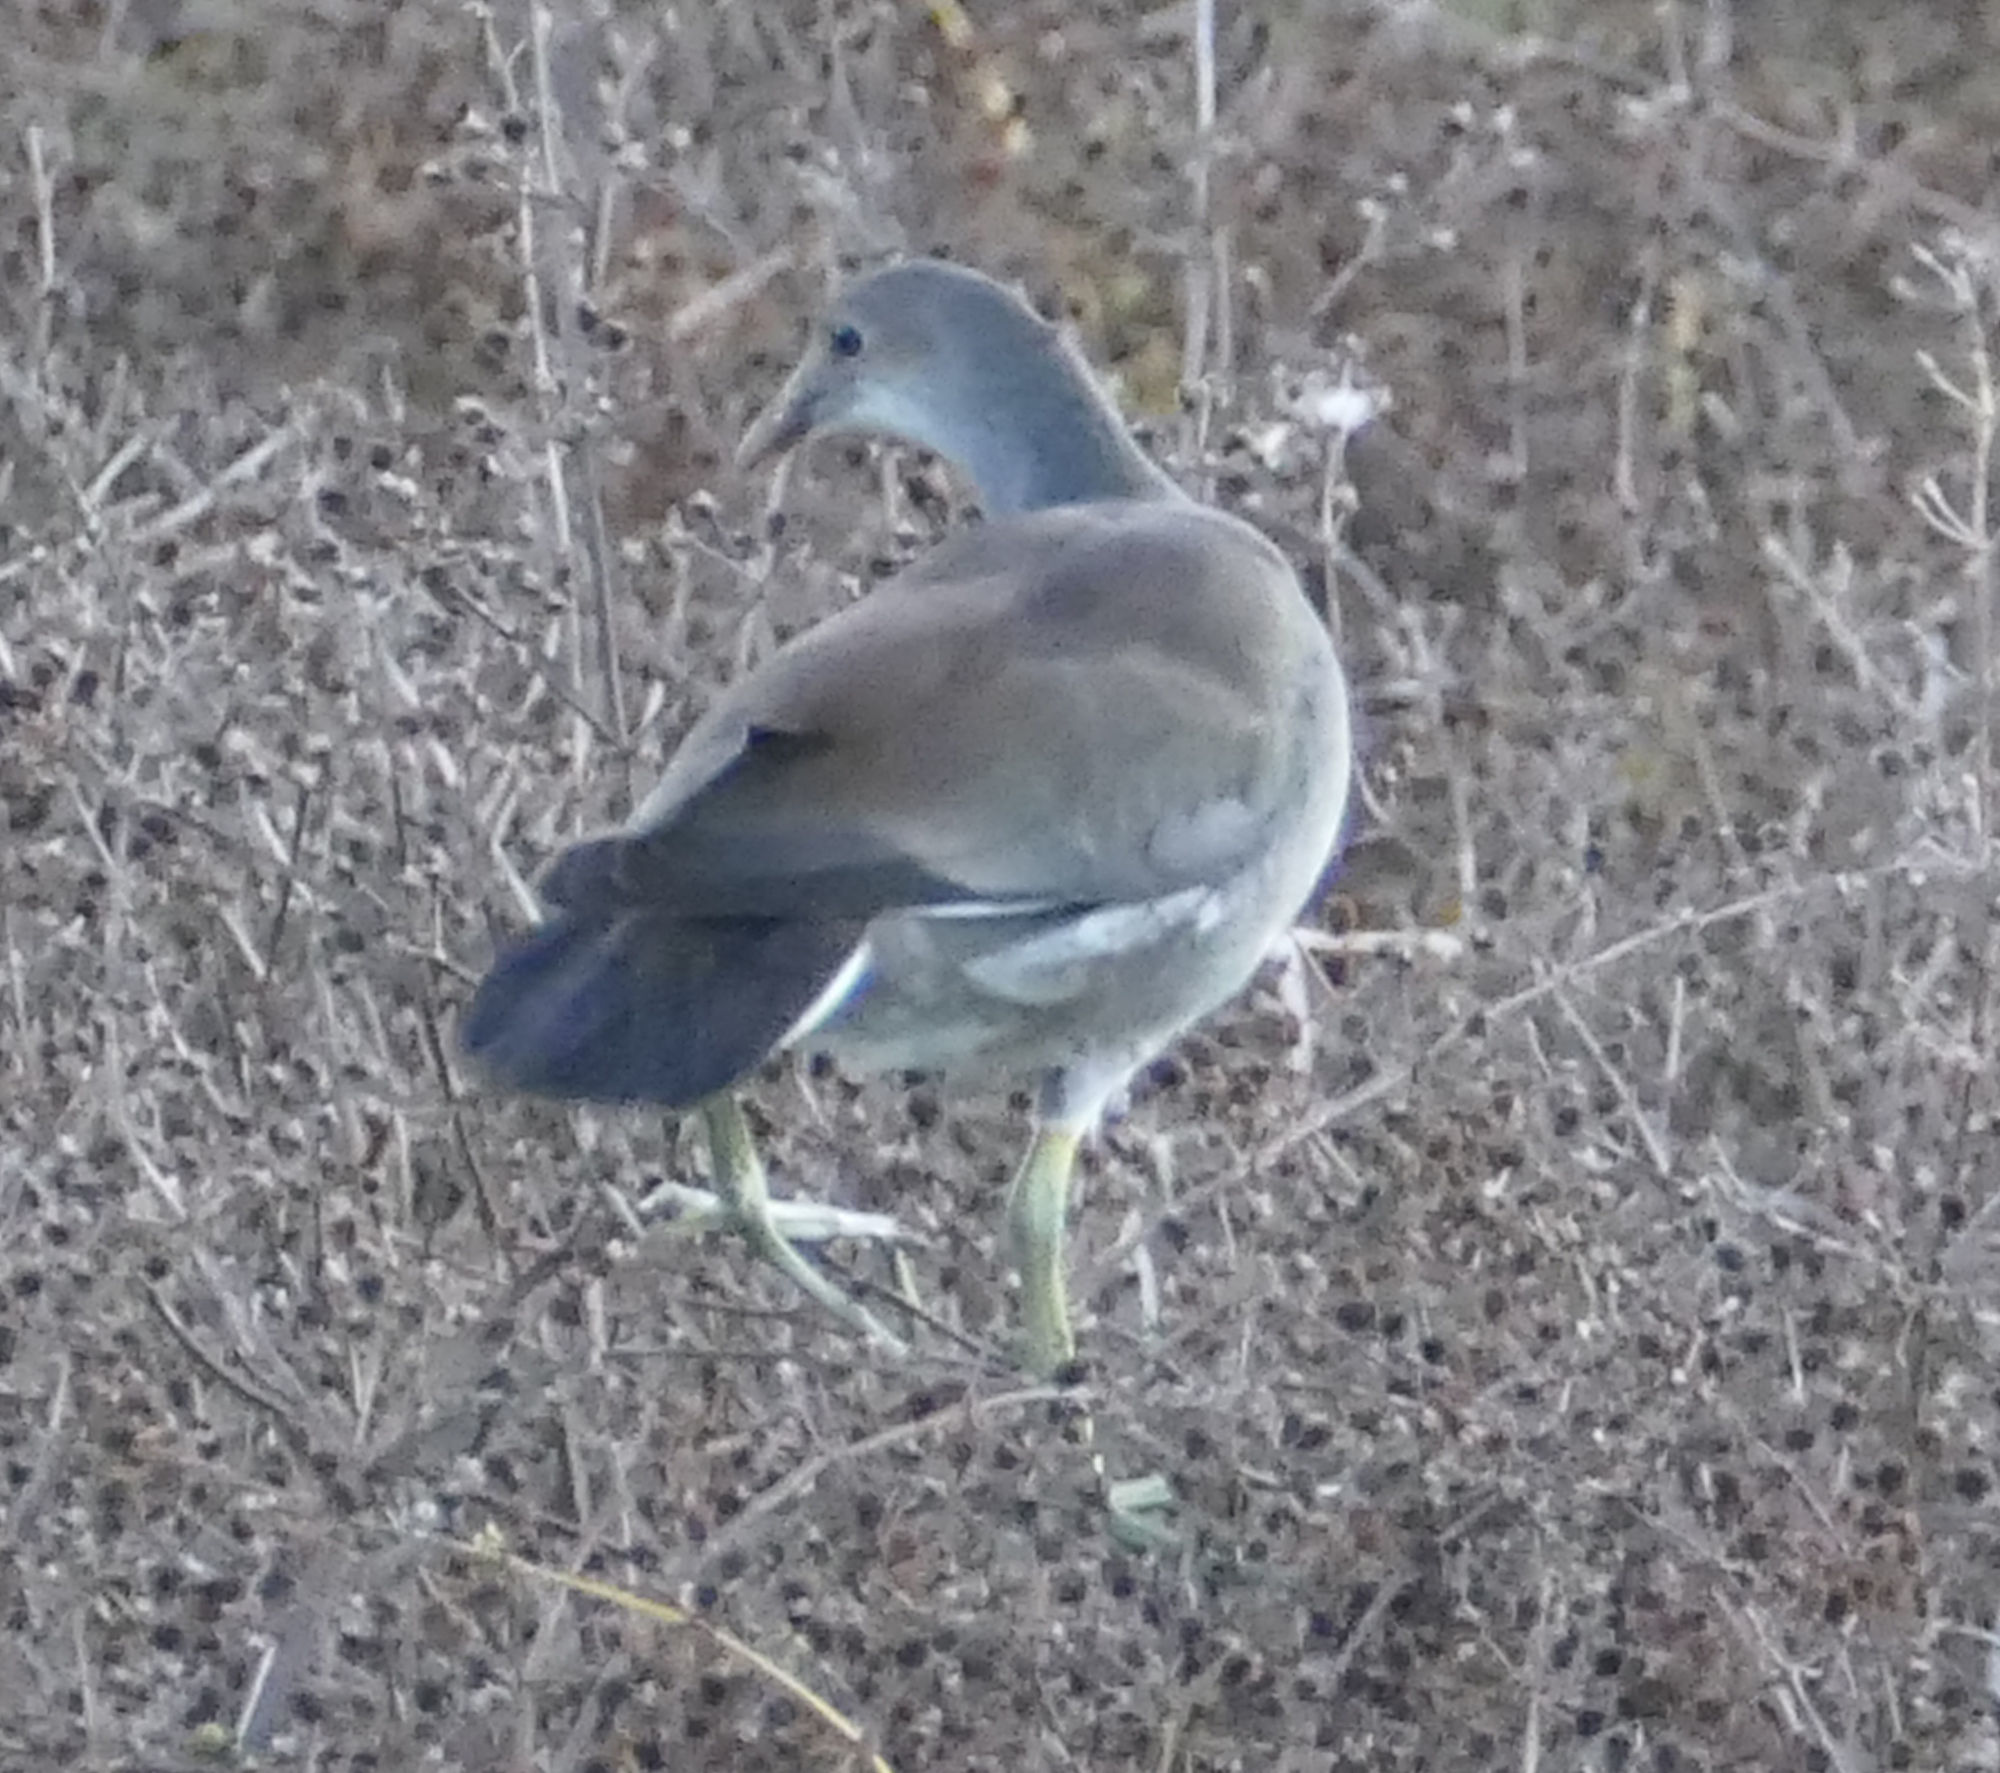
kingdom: Animalia
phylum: Chordata
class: Aves
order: Gruiformes
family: Rallidae
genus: Gallinula
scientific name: Gallinula chloropus
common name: Common moorhen
